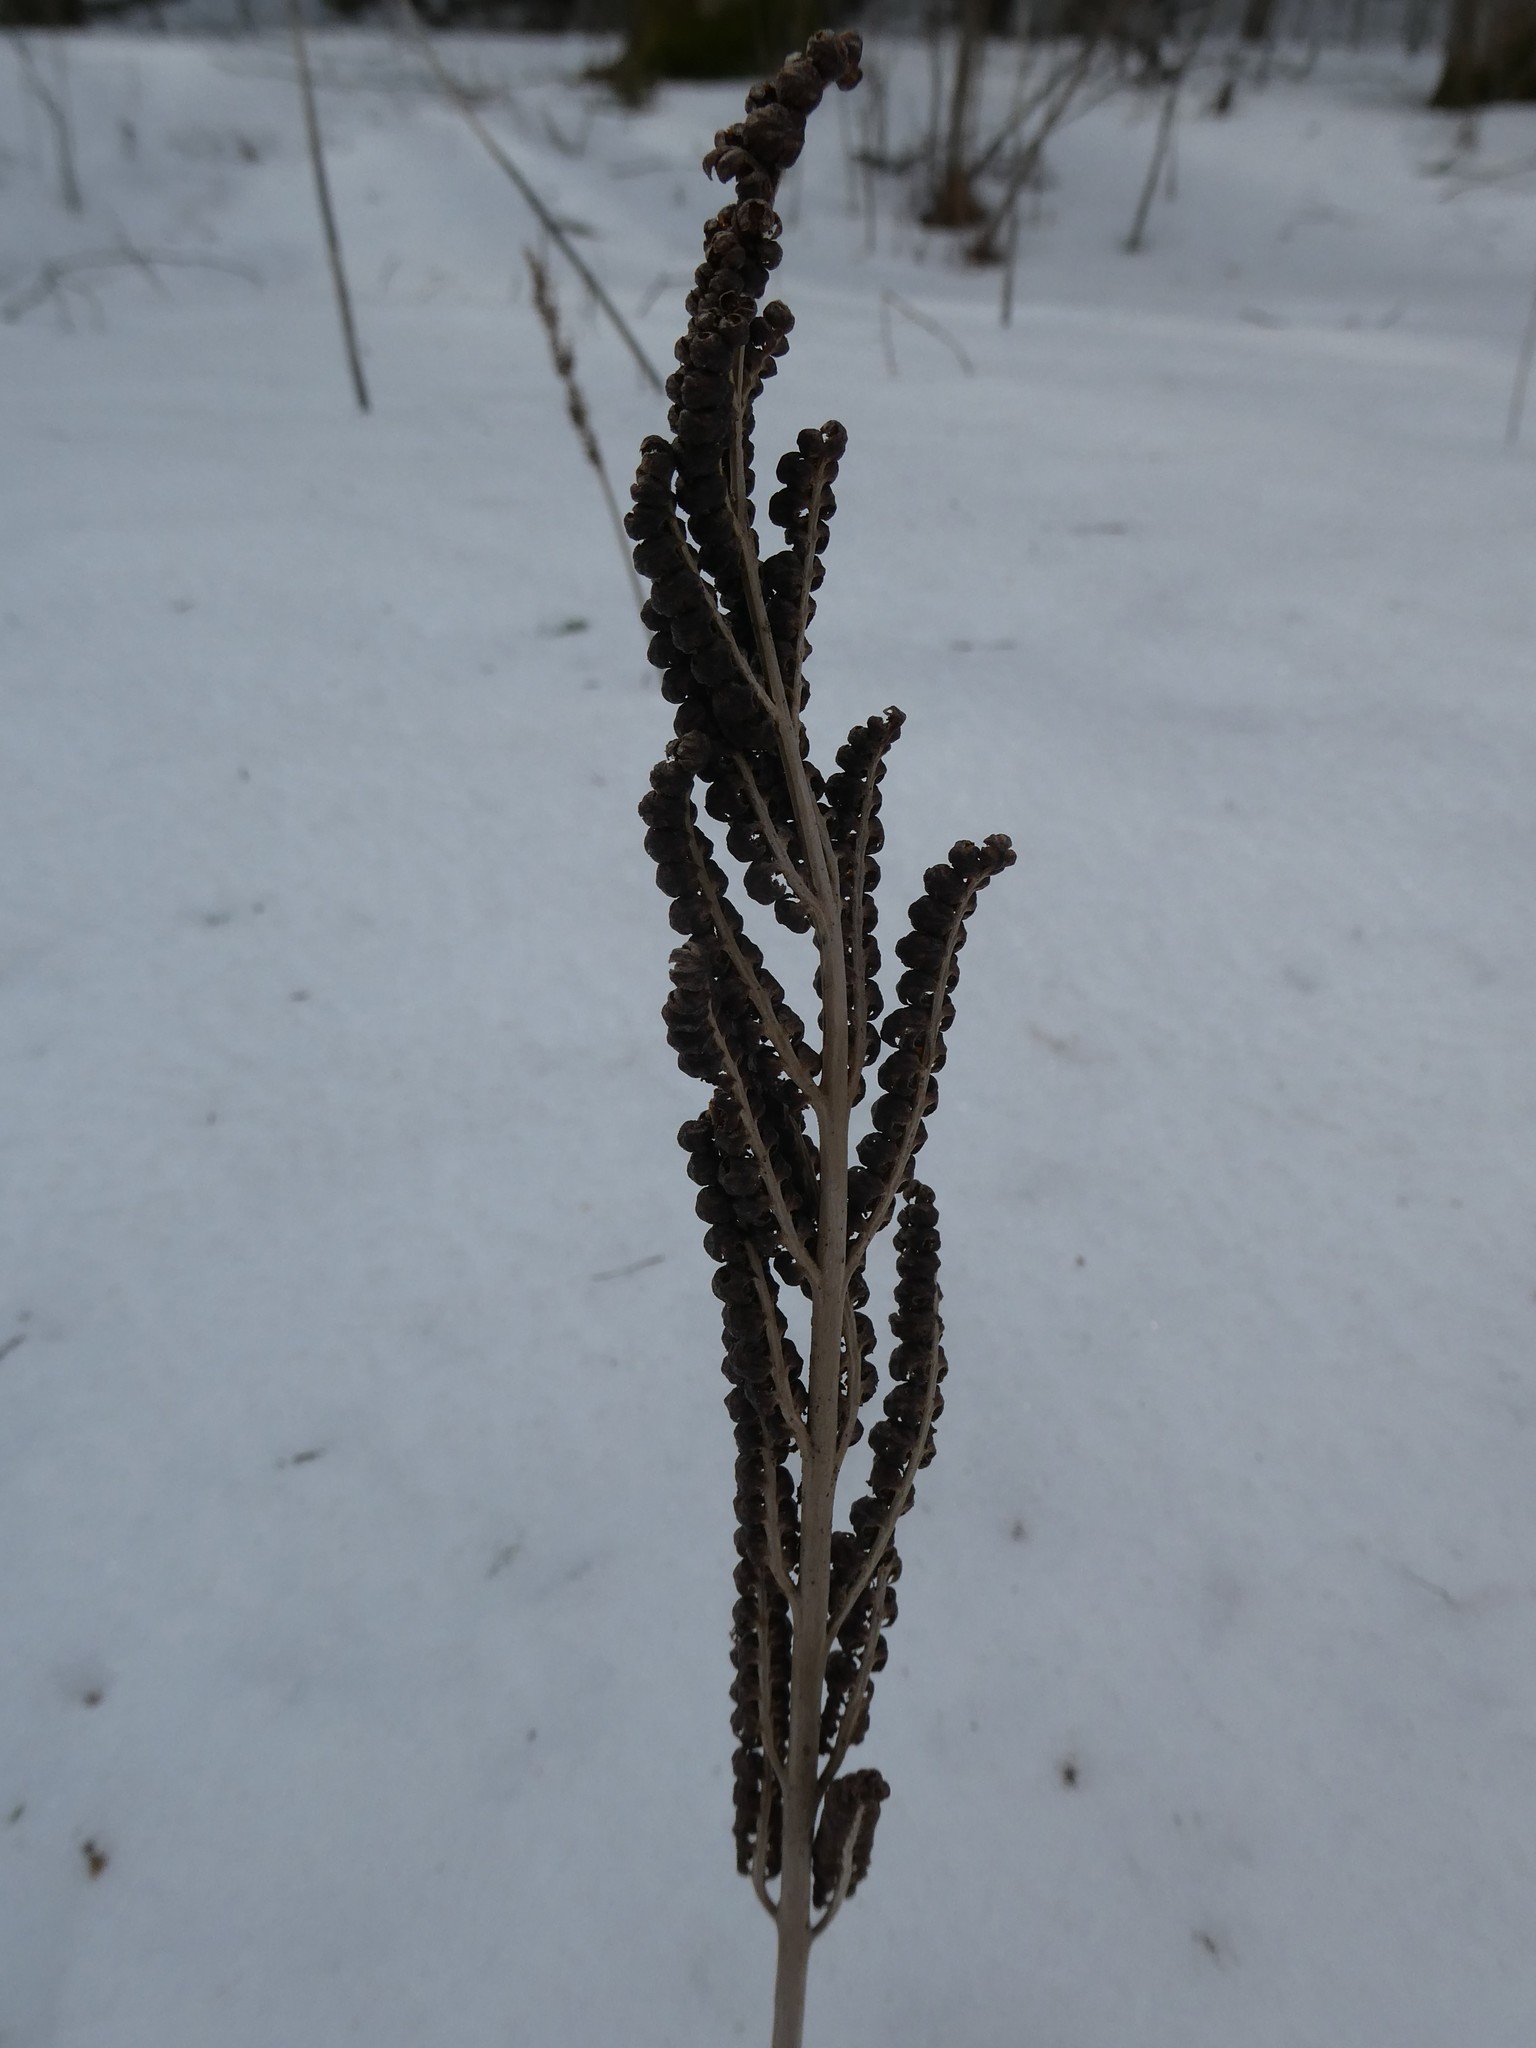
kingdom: Plantae
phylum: Tracheophyta
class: Polypodiopsida
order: Polypodiales
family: Onocleaceae
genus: Onoclea
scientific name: Onoclea sensibilis
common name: Sensitive fern
